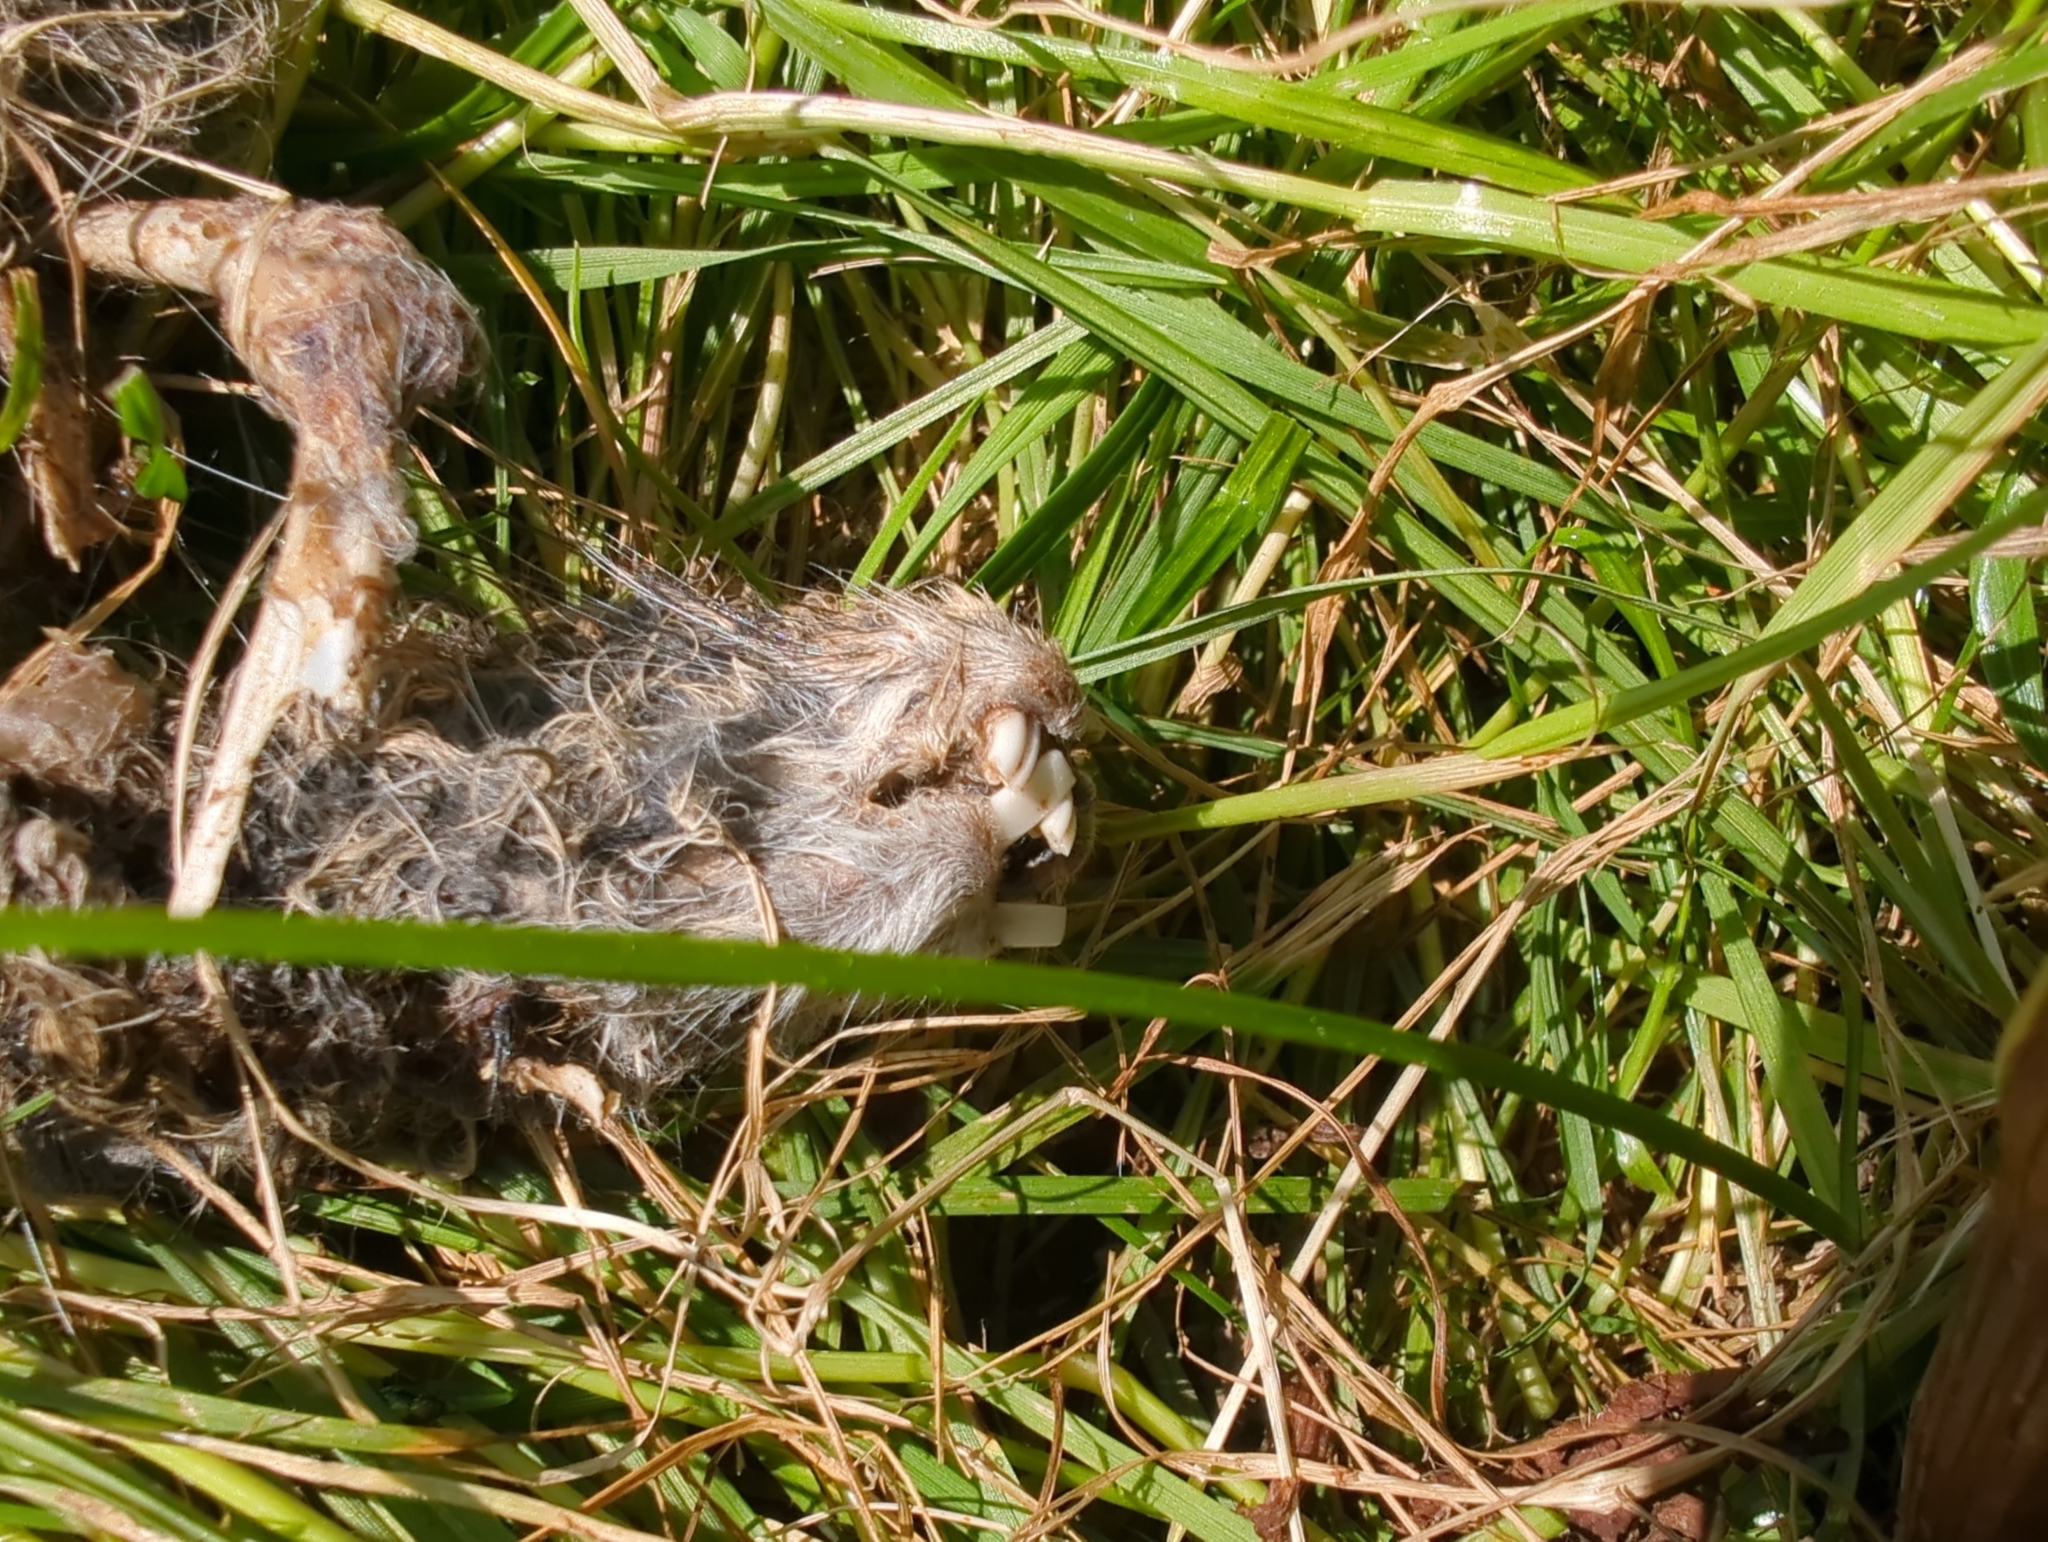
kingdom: Animalia
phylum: Chordata
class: Mammalia
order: Lagomorpha
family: Leporidae
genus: Oryctolagus
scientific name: Oryctolagus cuniculus
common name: European rabbit
